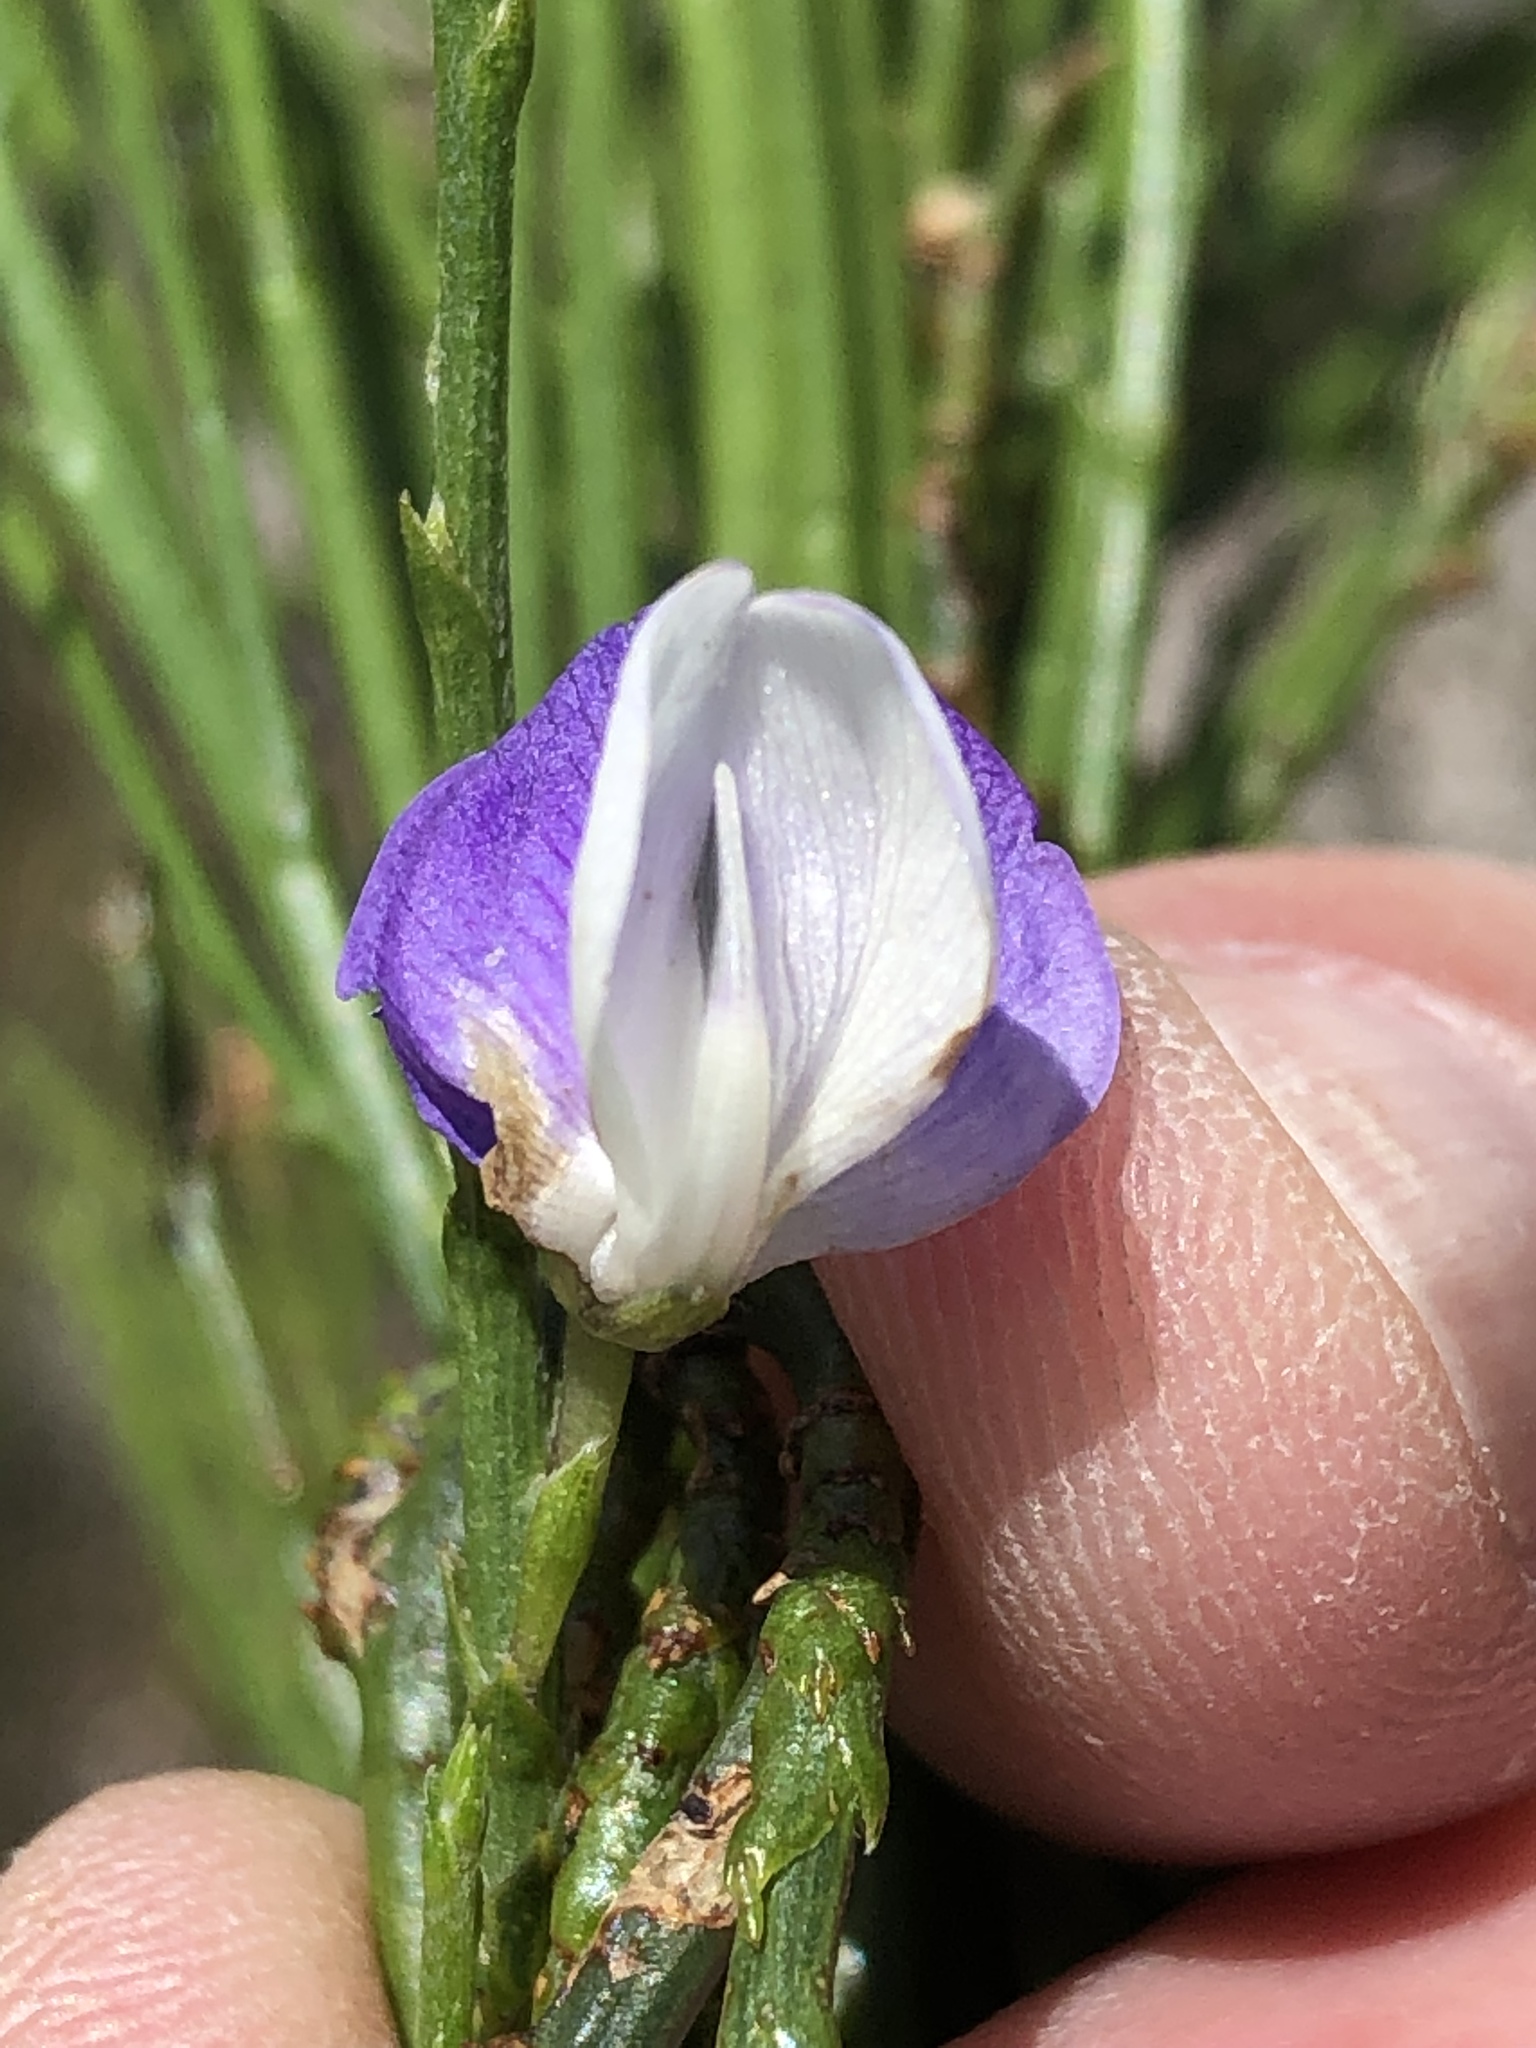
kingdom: Plantae
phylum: Tracheophyta
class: Magnoliopsida
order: Fabales
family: Fabaceae
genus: Psoralea
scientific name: Psoralea usitata
